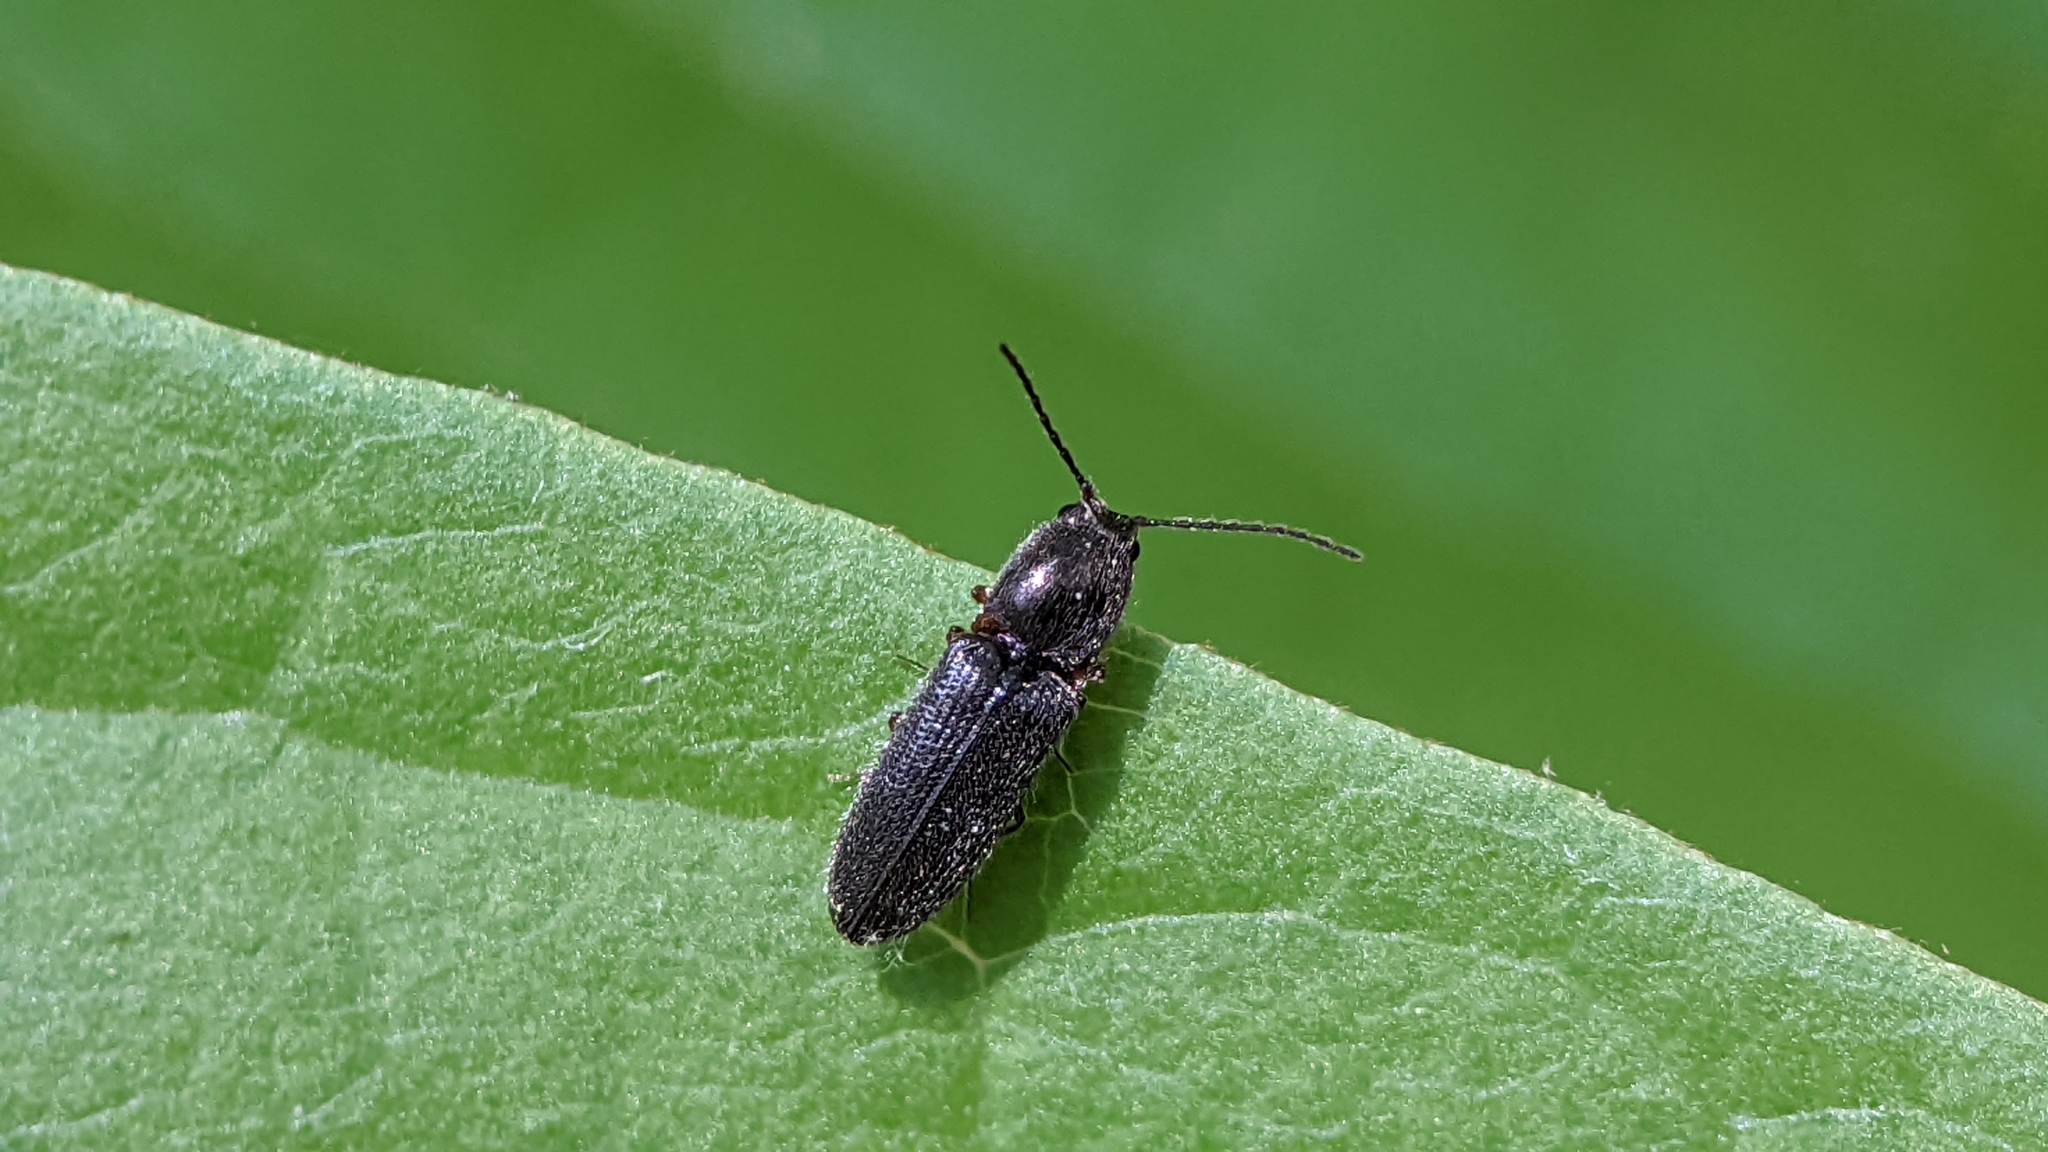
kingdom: Animalia
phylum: Arthropoda
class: Insecta
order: Coleoptera
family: Elateridae
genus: Limonius
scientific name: Limonius basilaris
